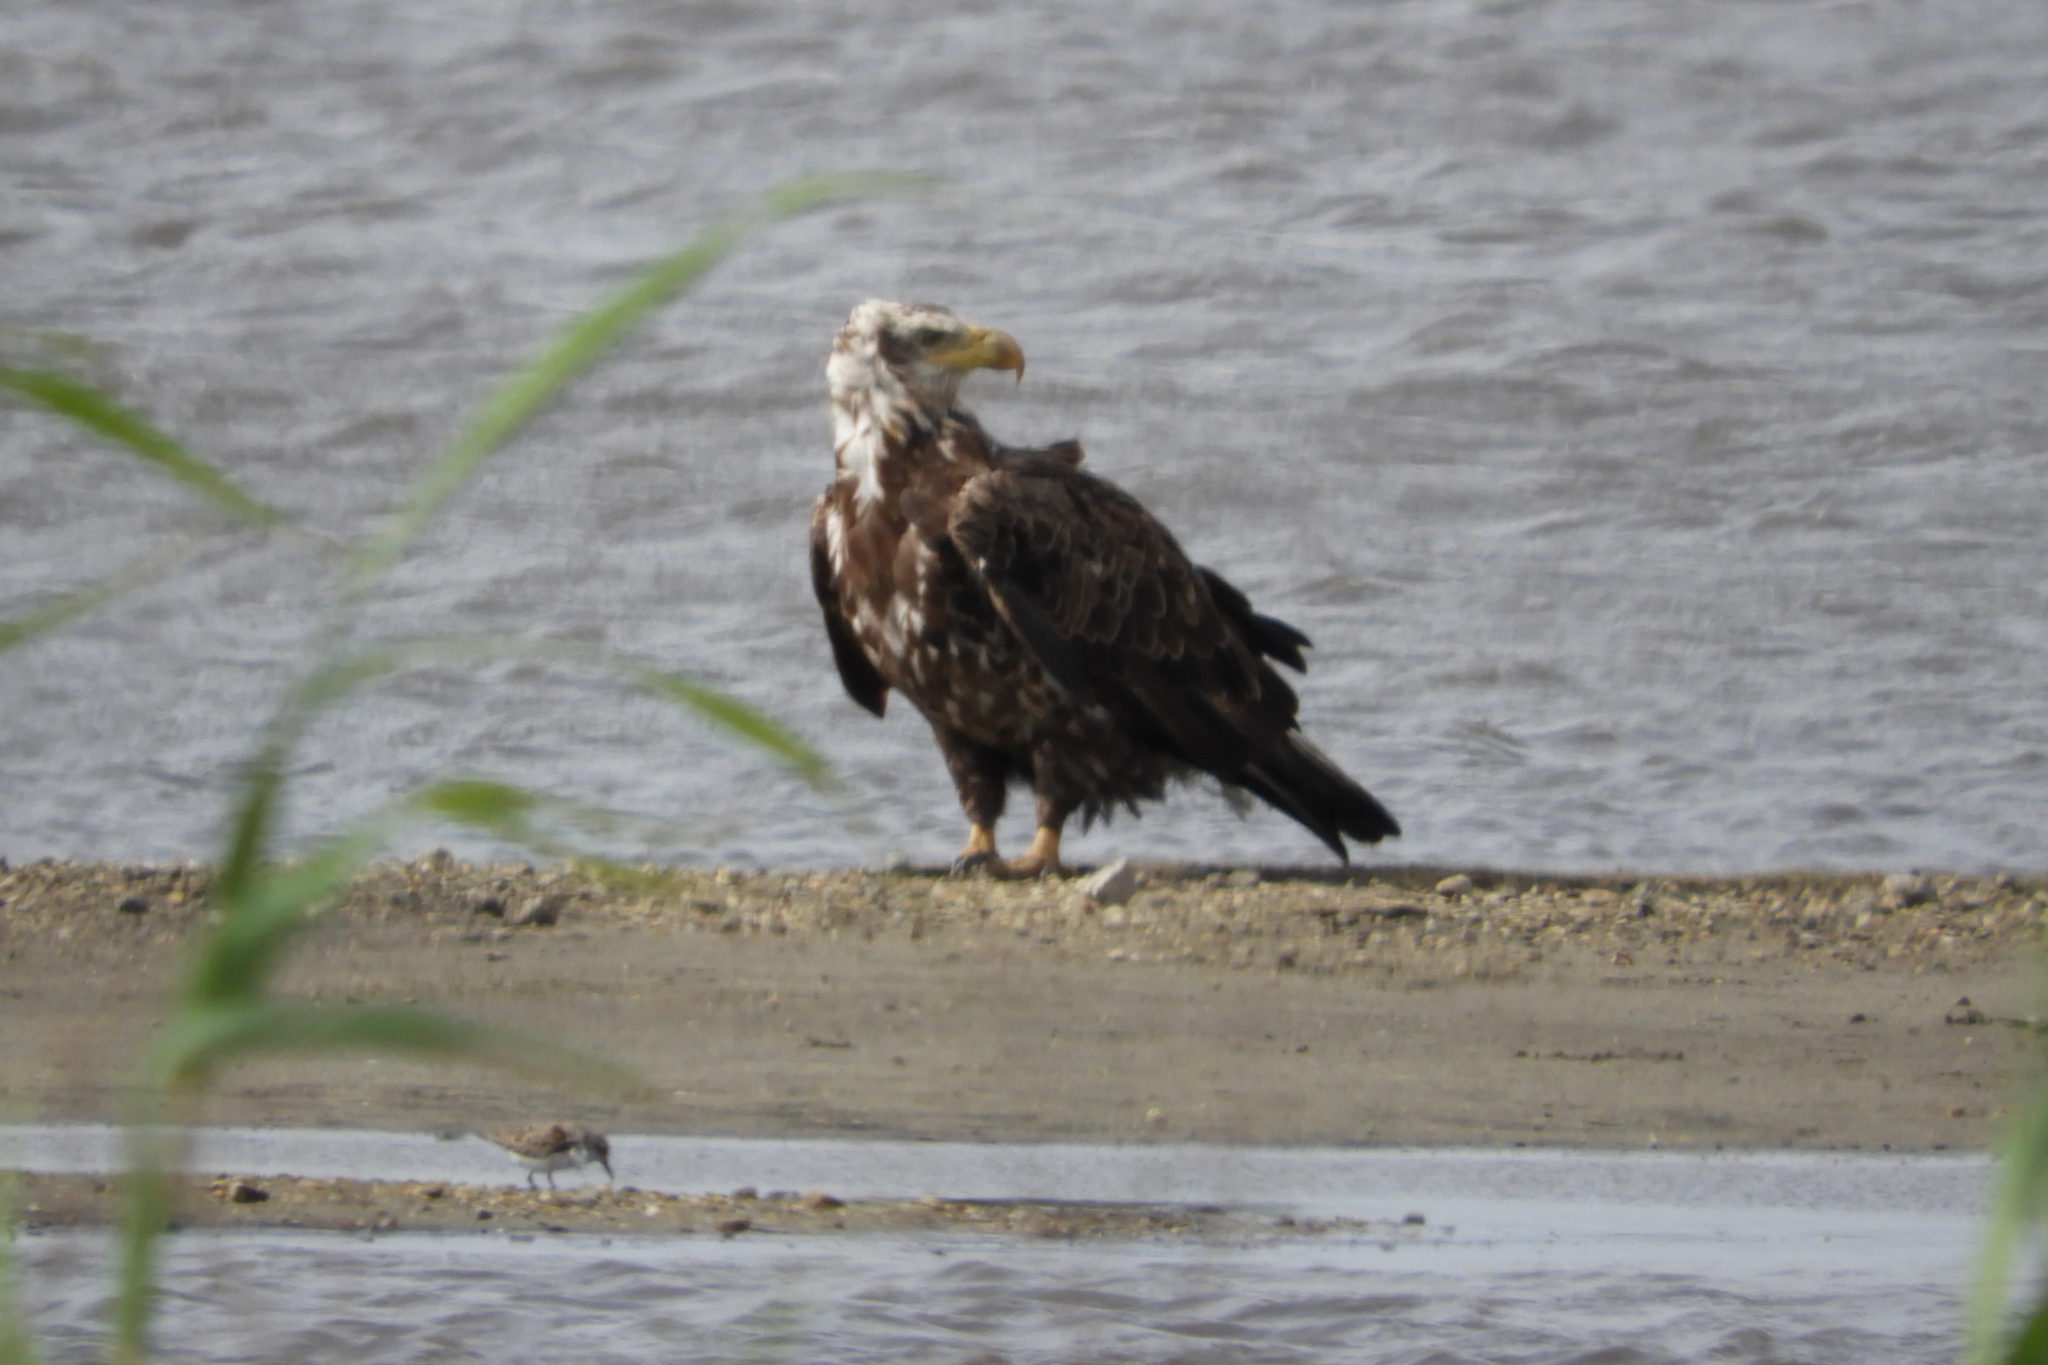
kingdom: Animalia
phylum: Chordata
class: Aves
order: Accipitriformes
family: Accipitridae
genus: Haliaeetus
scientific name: Haliaeetus leucocephalus
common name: Bald eagle
